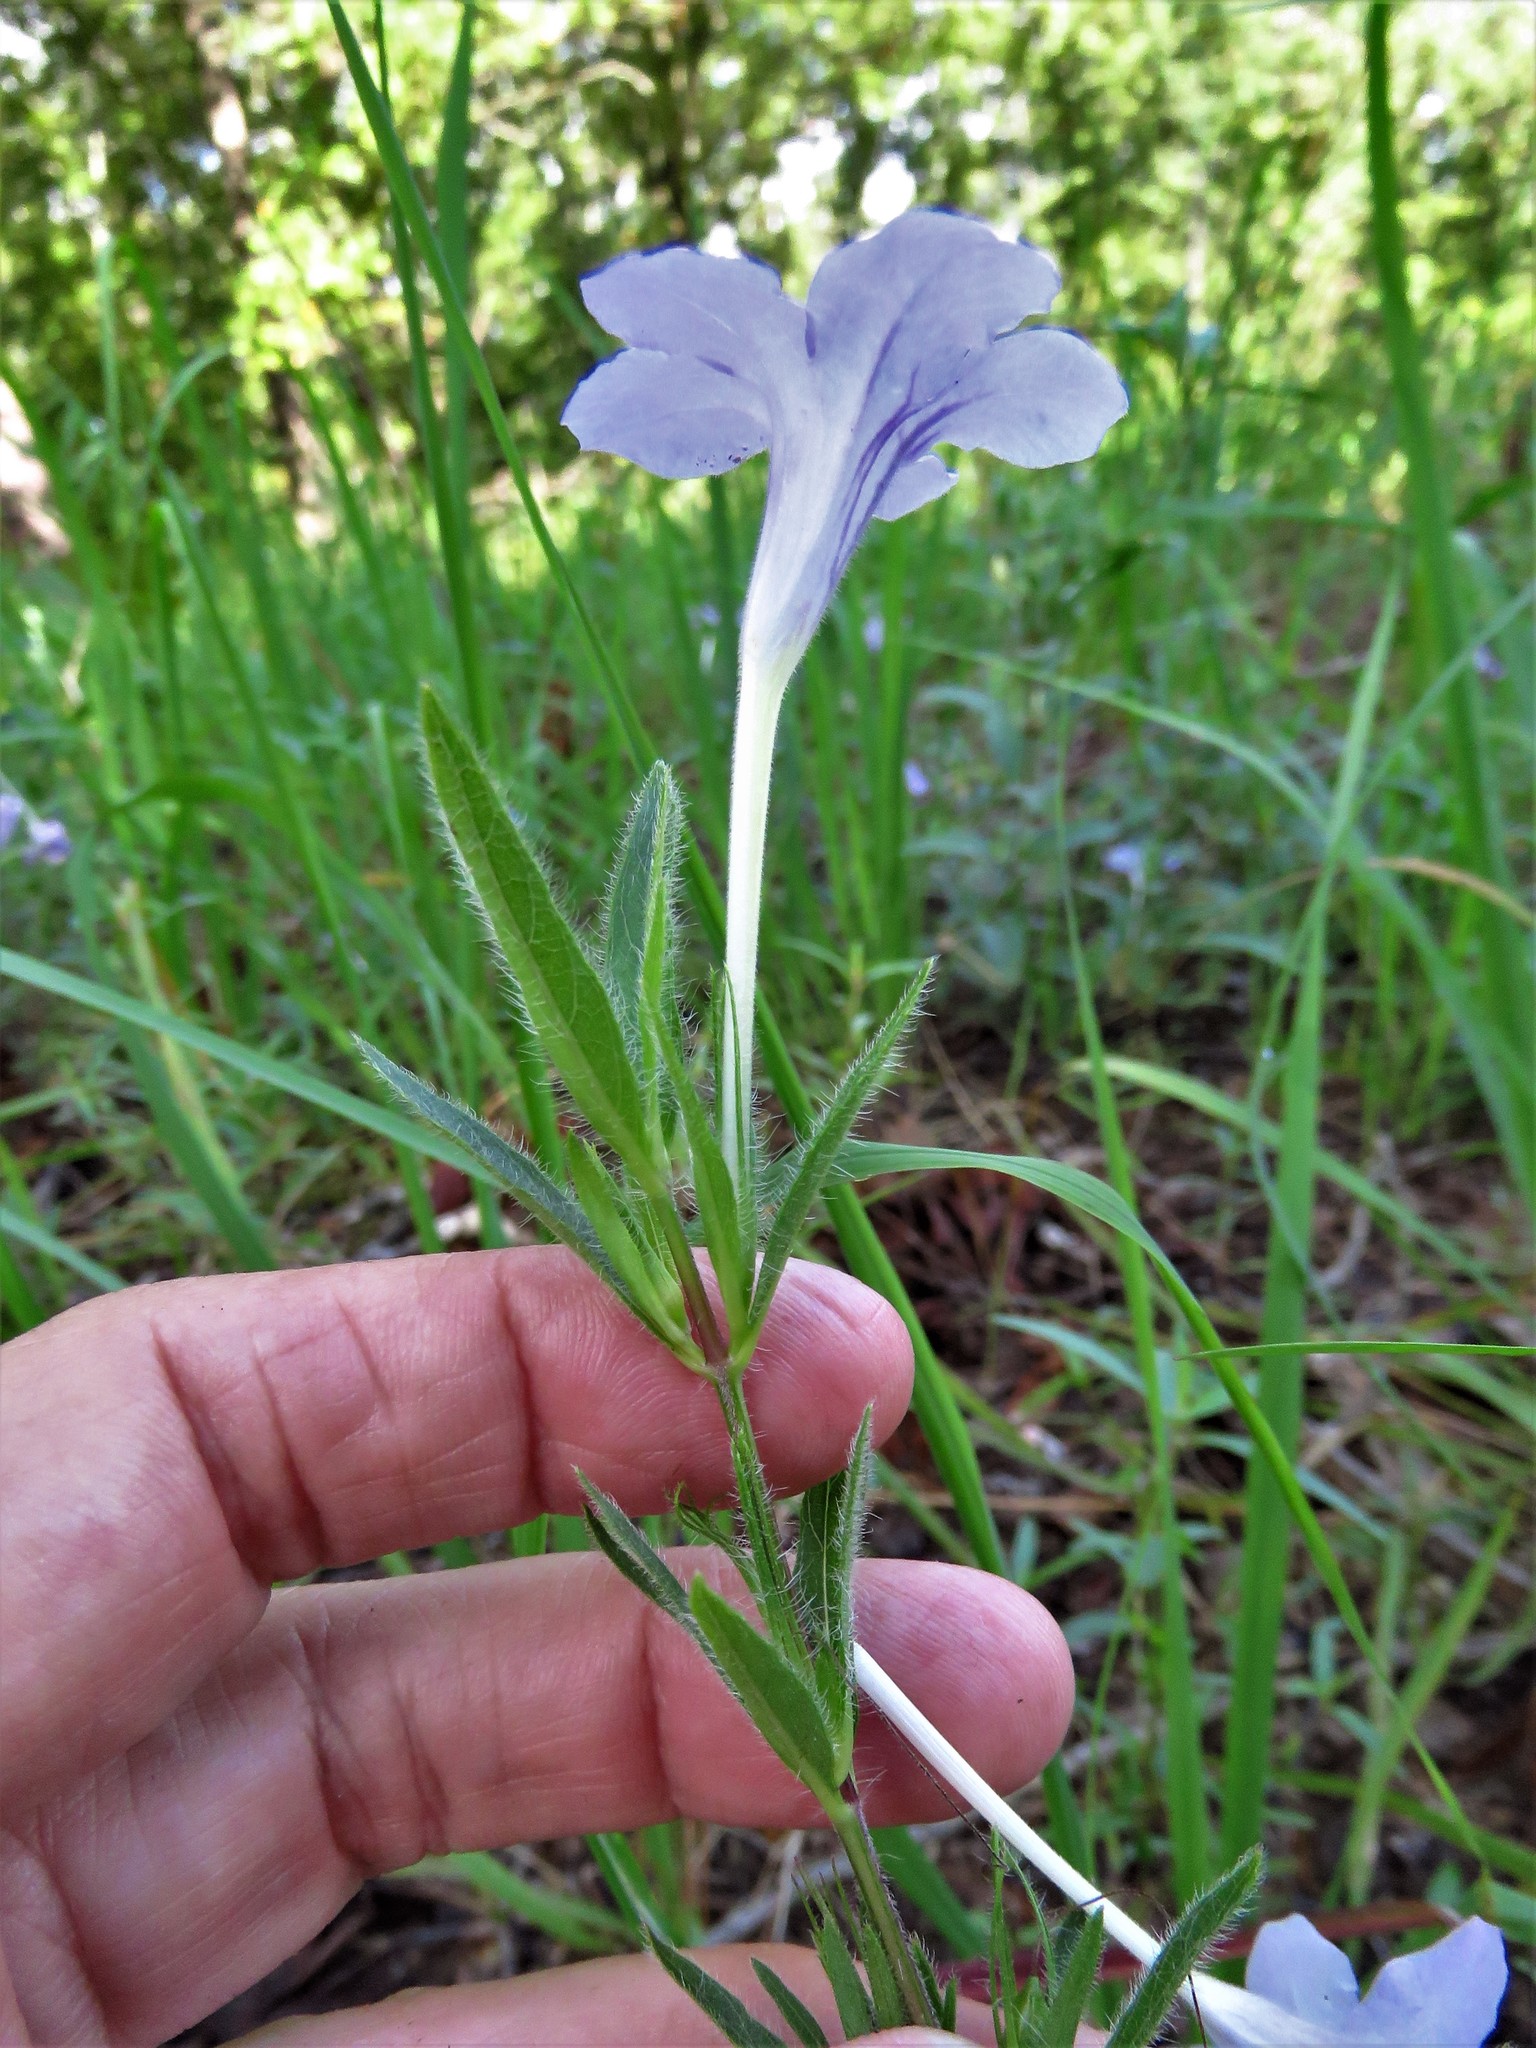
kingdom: Plantae
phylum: Tracheophyta
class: Magnoliopsida
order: Lamiales
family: Acanthaceae
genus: Ruellia
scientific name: Ruellia humilis
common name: Fringe-leaf ruellia
